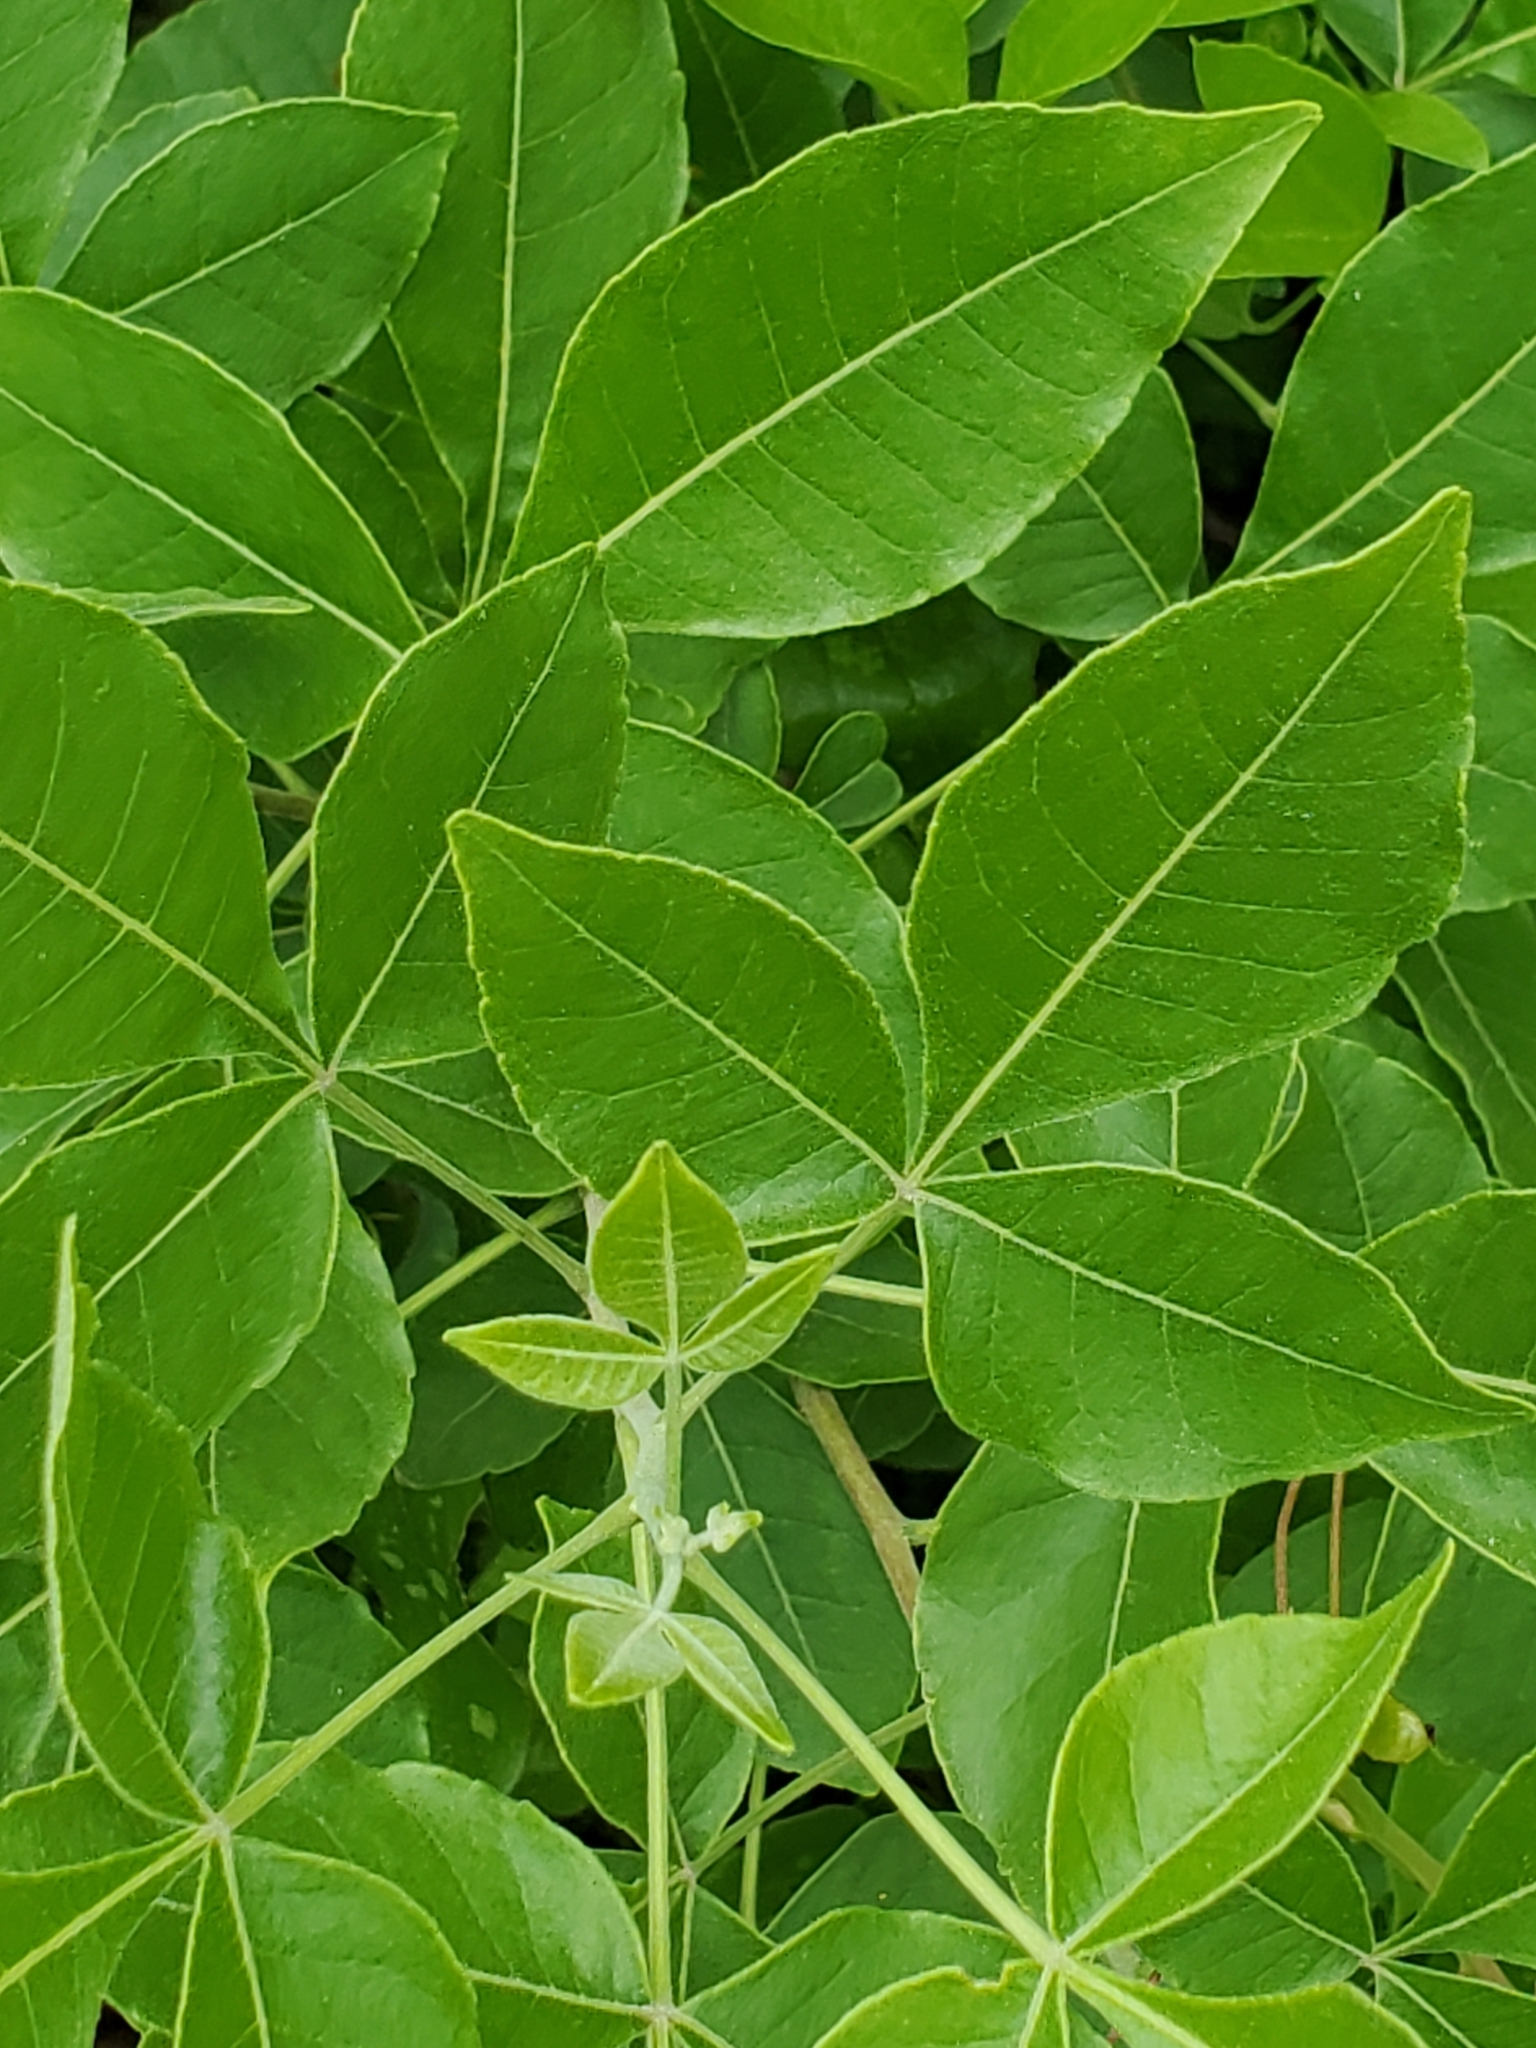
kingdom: Plantae
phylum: Tracheophyta
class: Magnoliopsida
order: Sapindales
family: Rutaceae
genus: Ptelea
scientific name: Ptelea trifoliata
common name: Common hop-tree
